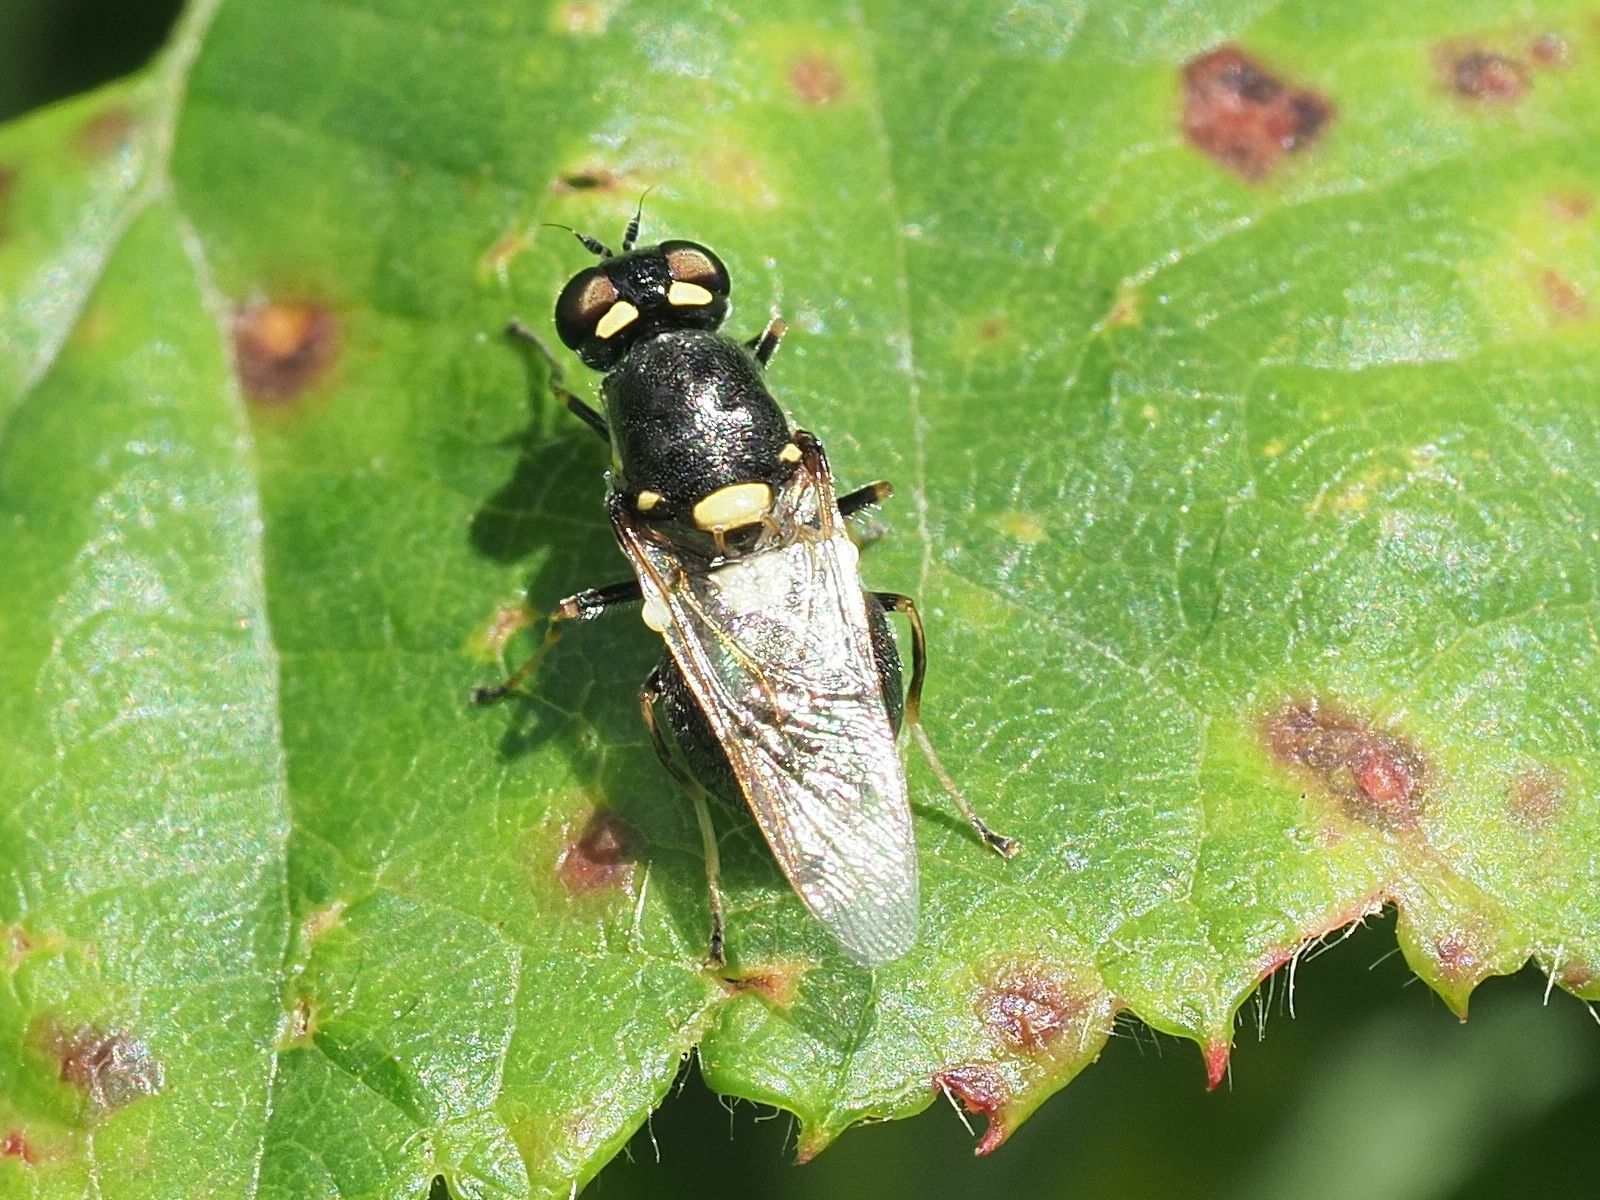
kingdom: Animalia
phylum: Arthropoda
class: Insecta
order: Diptera
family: Stratiomyidae
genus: Oxycera
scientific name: Oxycera leonina
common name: Twin-spotted major
